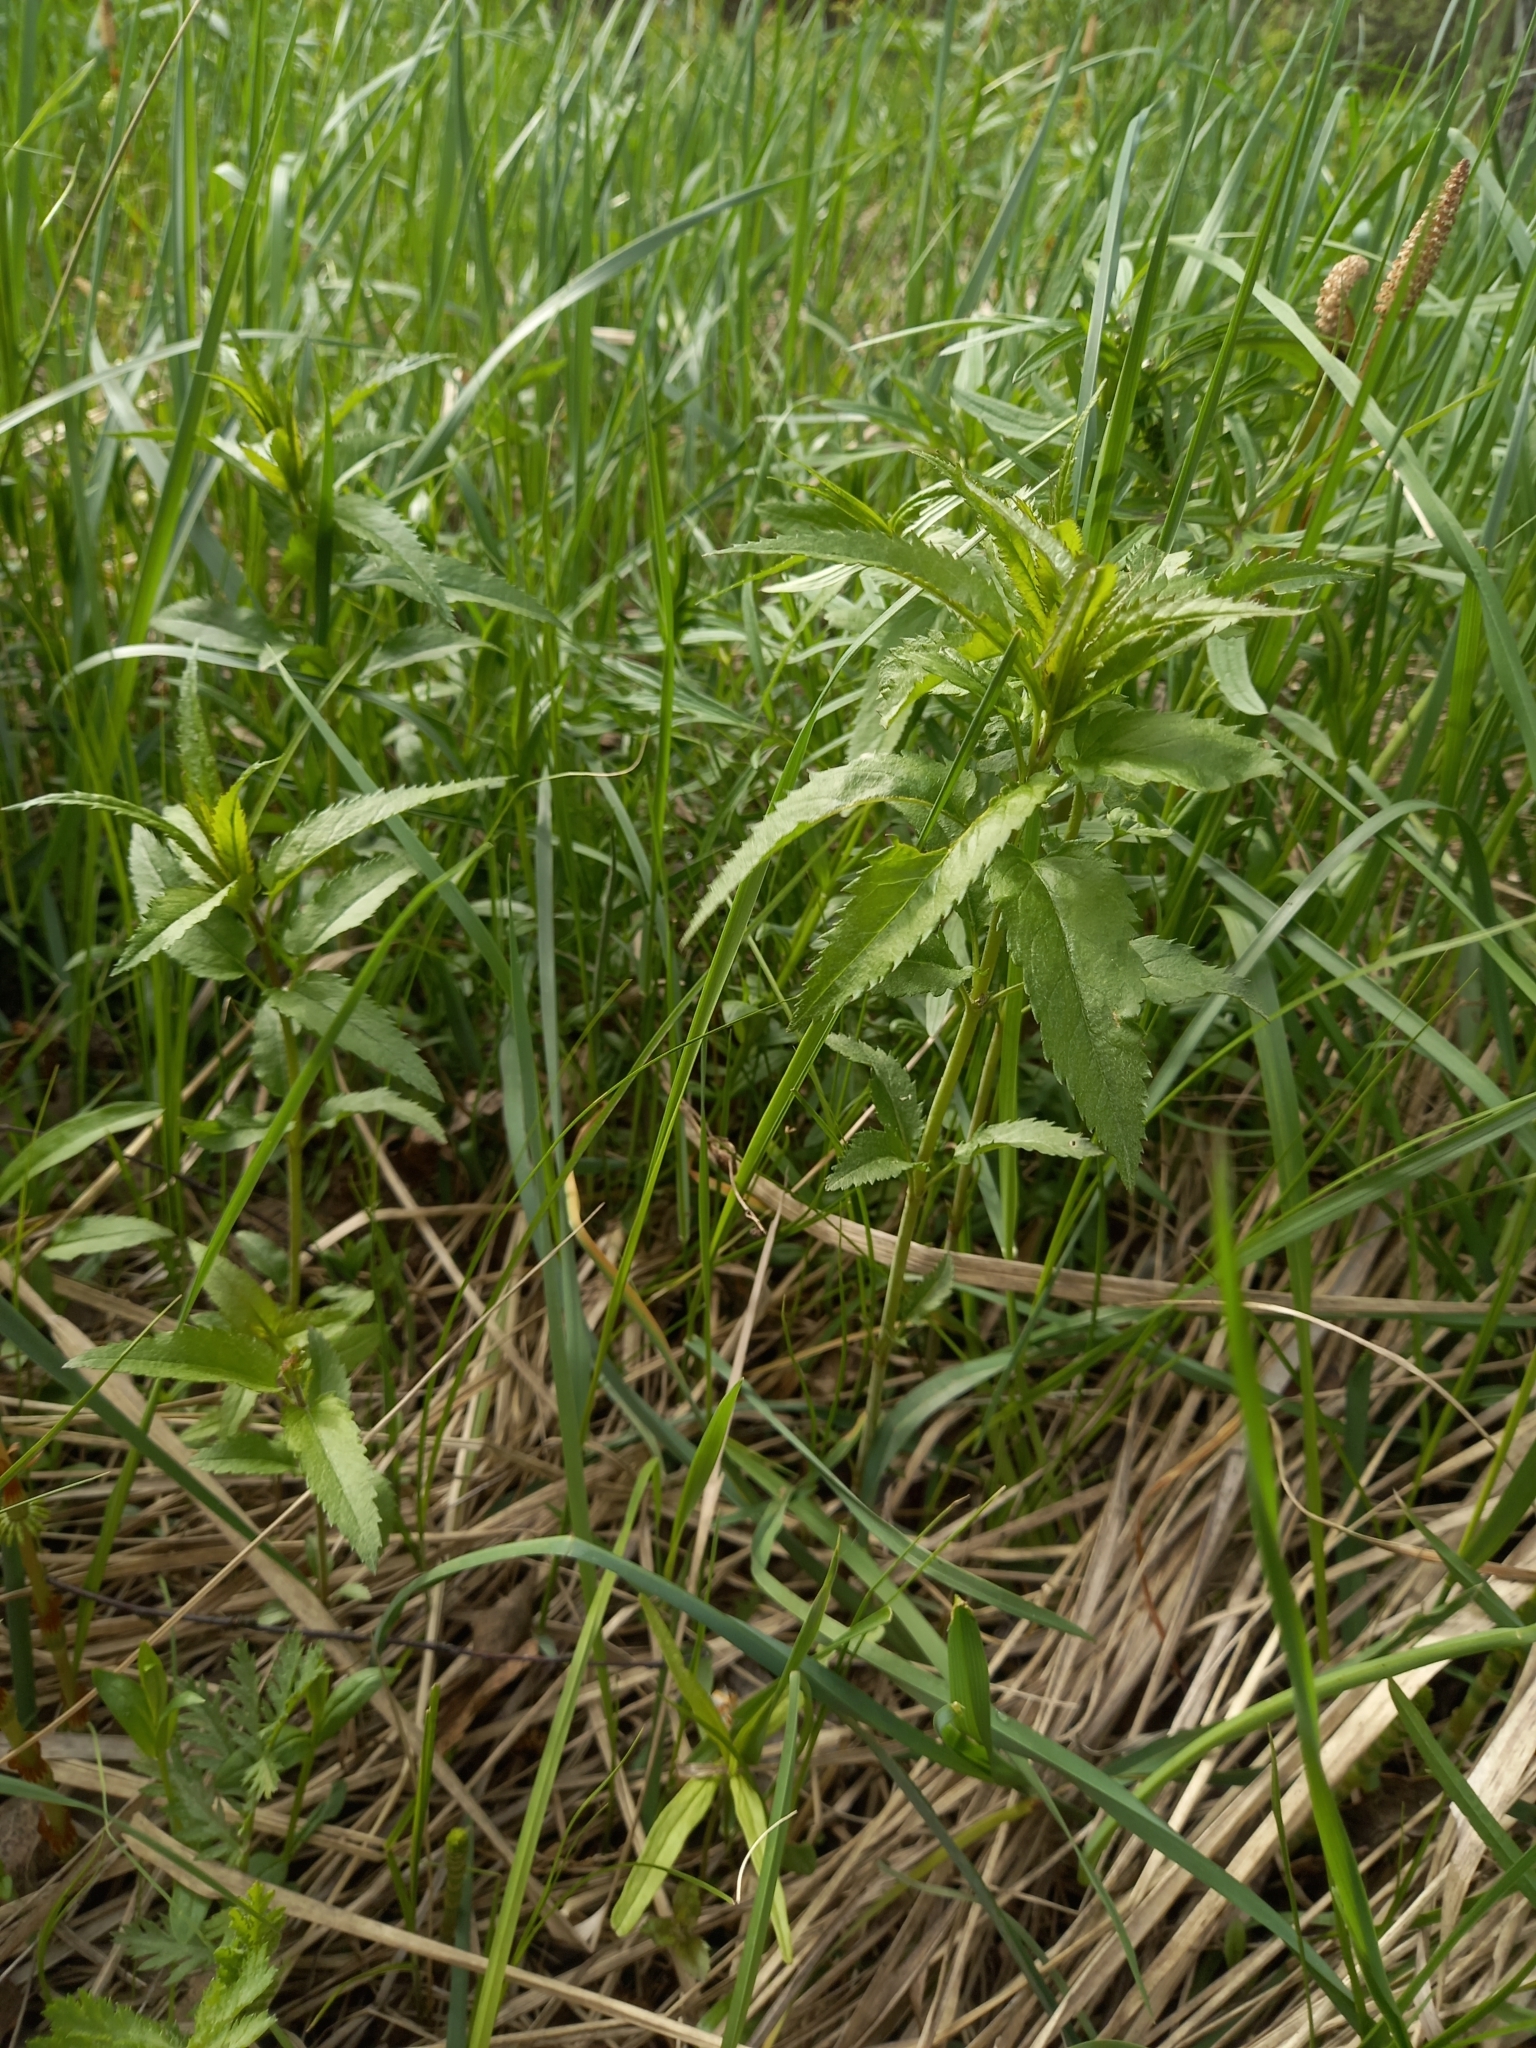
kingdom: Plantae
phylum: Tracheophyta
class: Magnoliopsida
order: Lamiales
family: Plantaginaceae
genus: Veronica
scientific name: Veronica longifolia
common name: Garden speedwell
